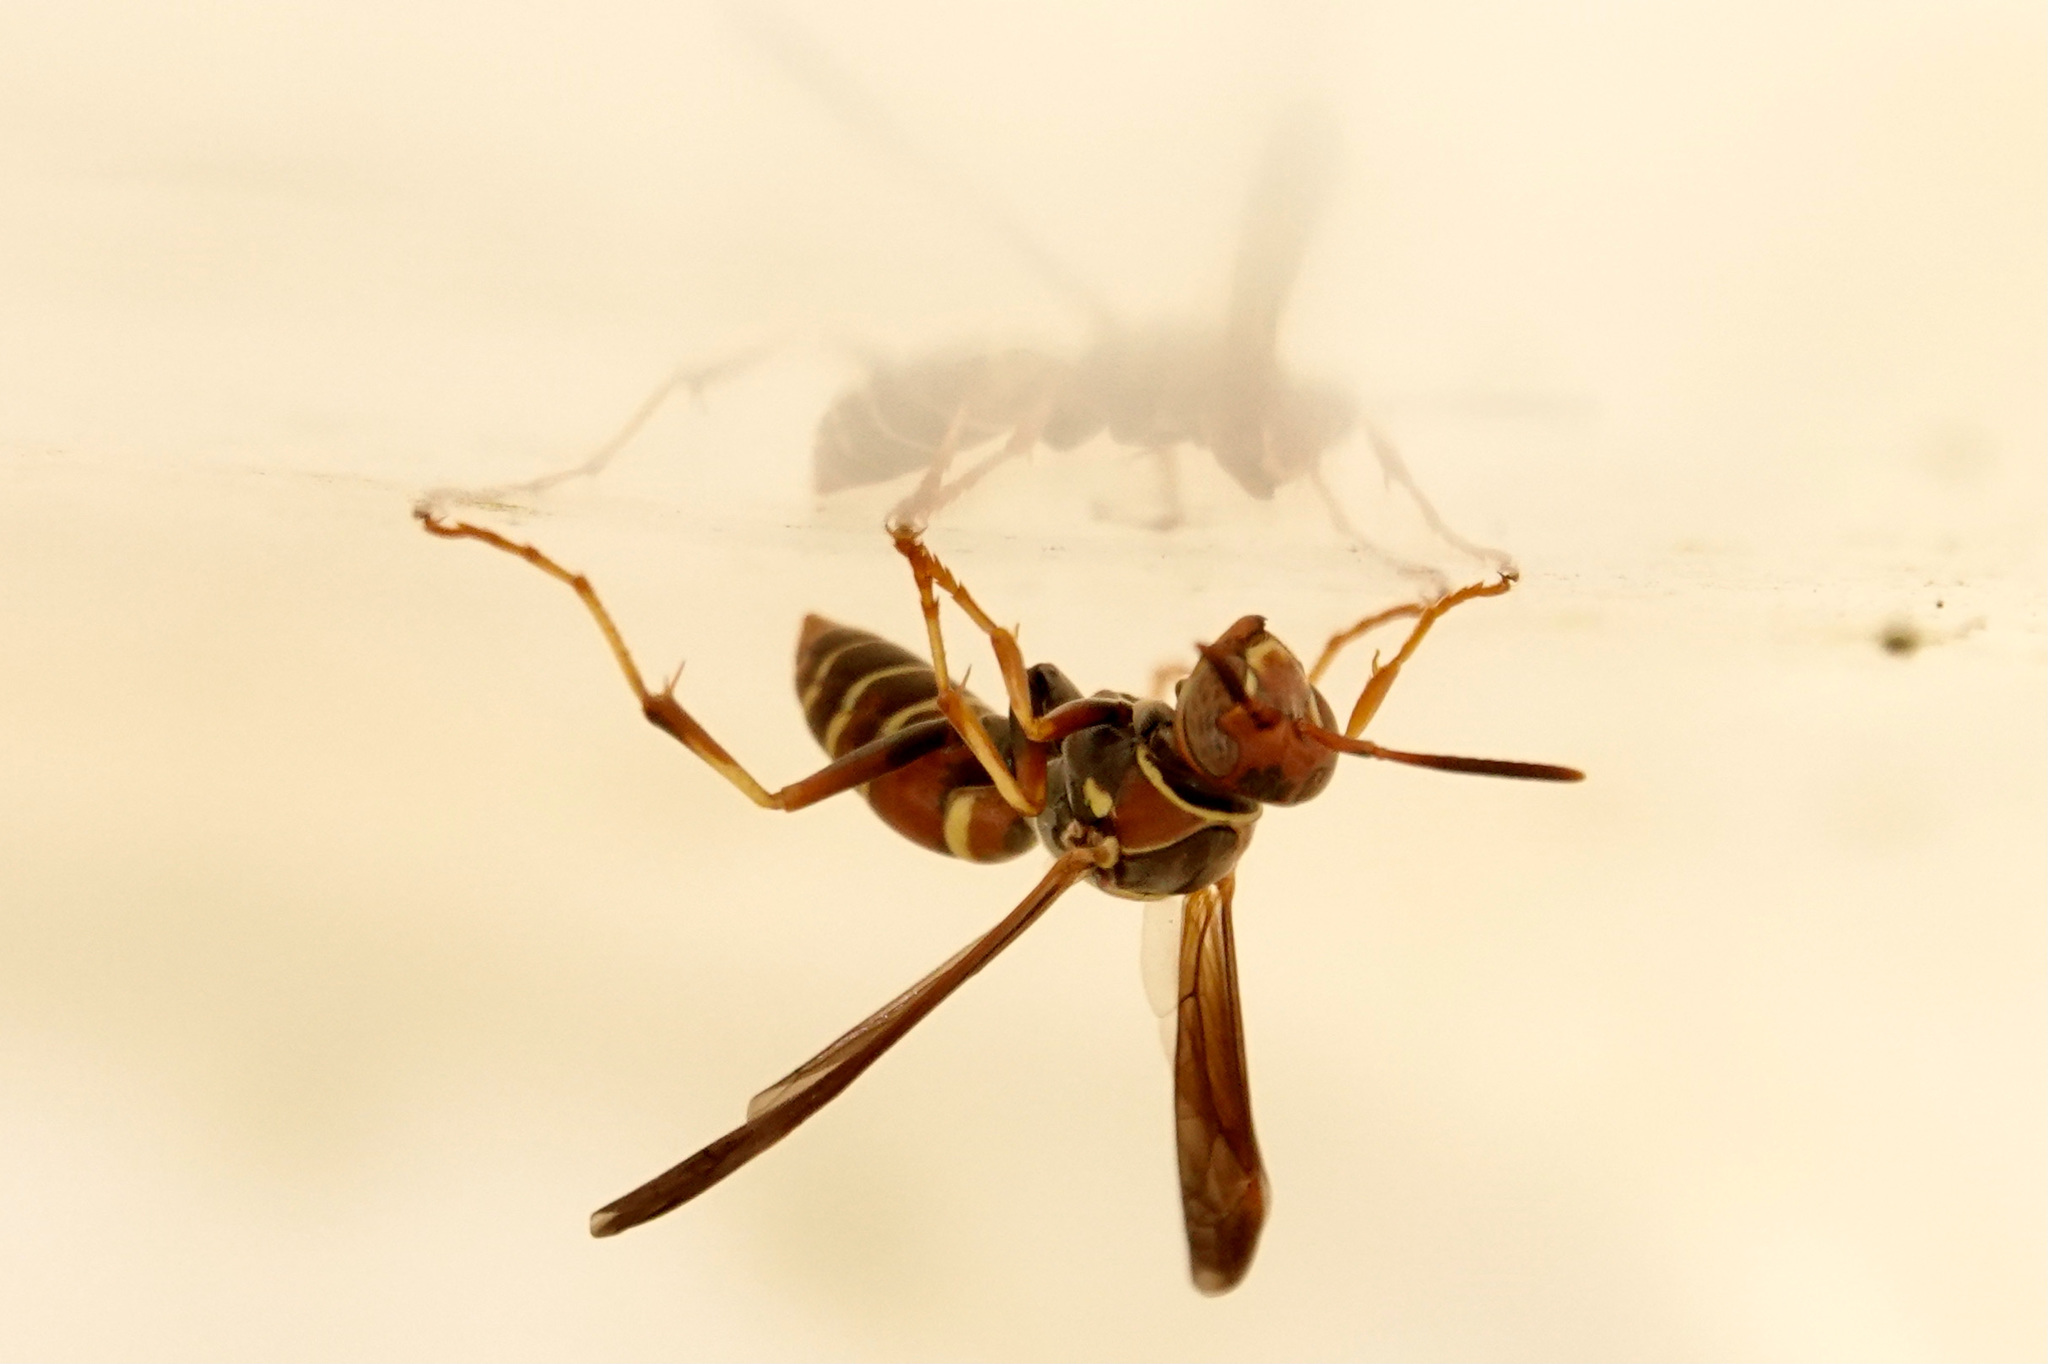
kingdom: Animalia
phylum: Arthropoda
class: Insecta
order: Hymenoptera
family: Eumenidae
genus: Polistes
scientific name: Polistes dorsalis
